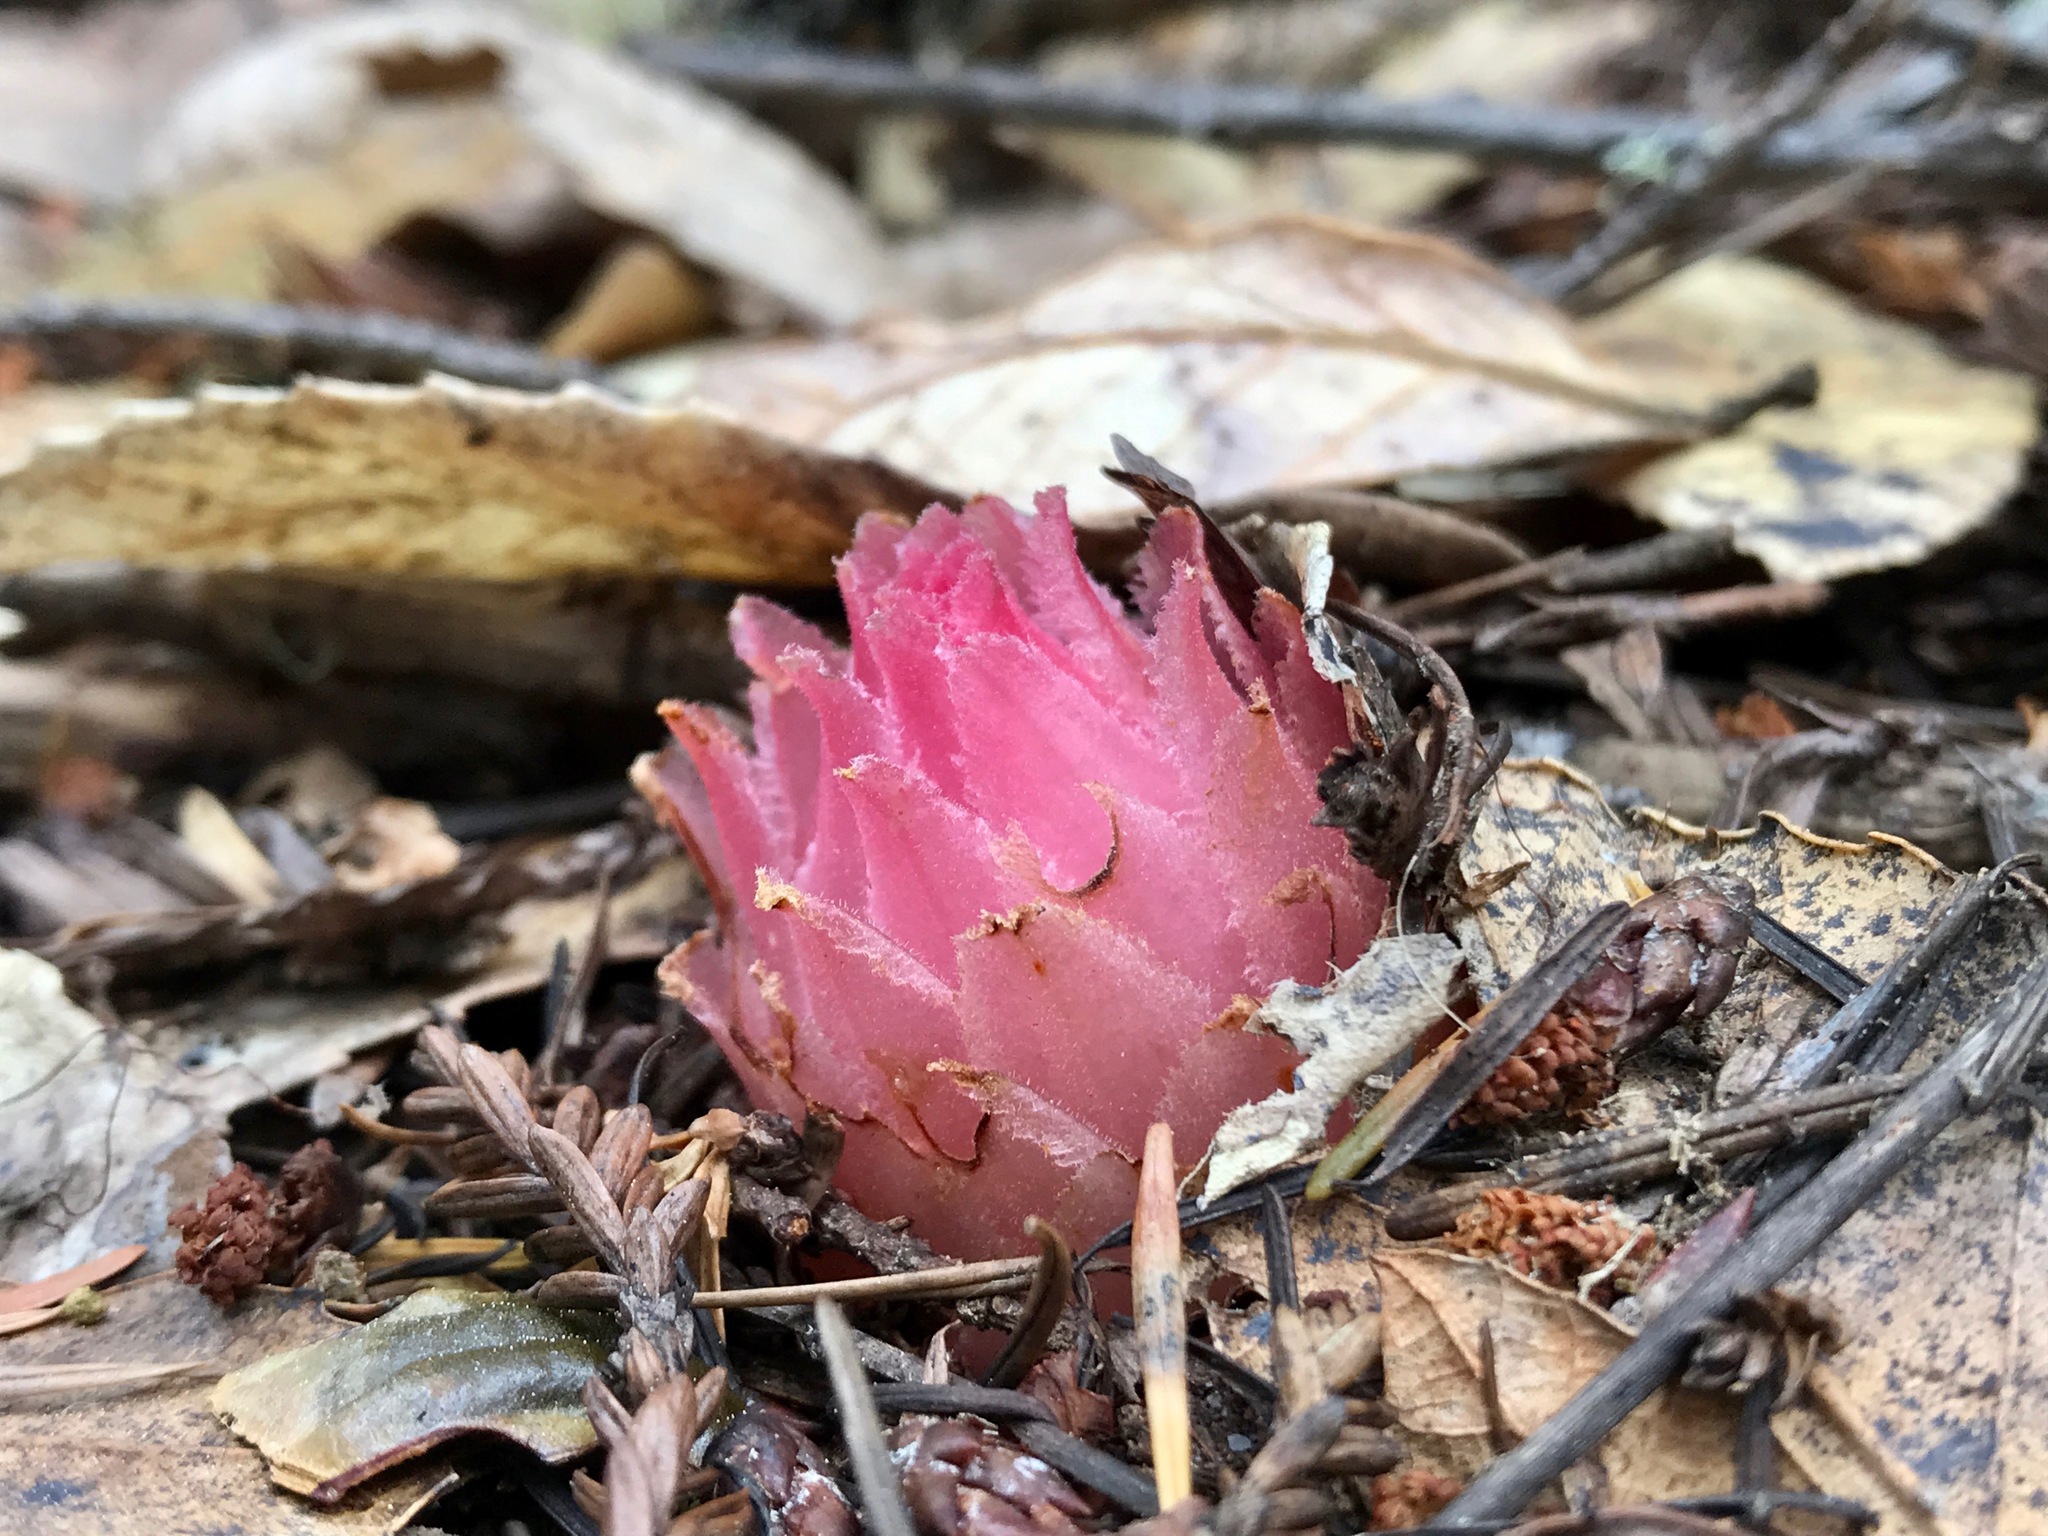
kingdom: Plantae
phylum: Tracheophyta
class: Magnoliopsida
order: Ericales
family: Ericaceae
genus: Hemitomes
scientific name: Hemitomes congestum
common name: Cone plant
